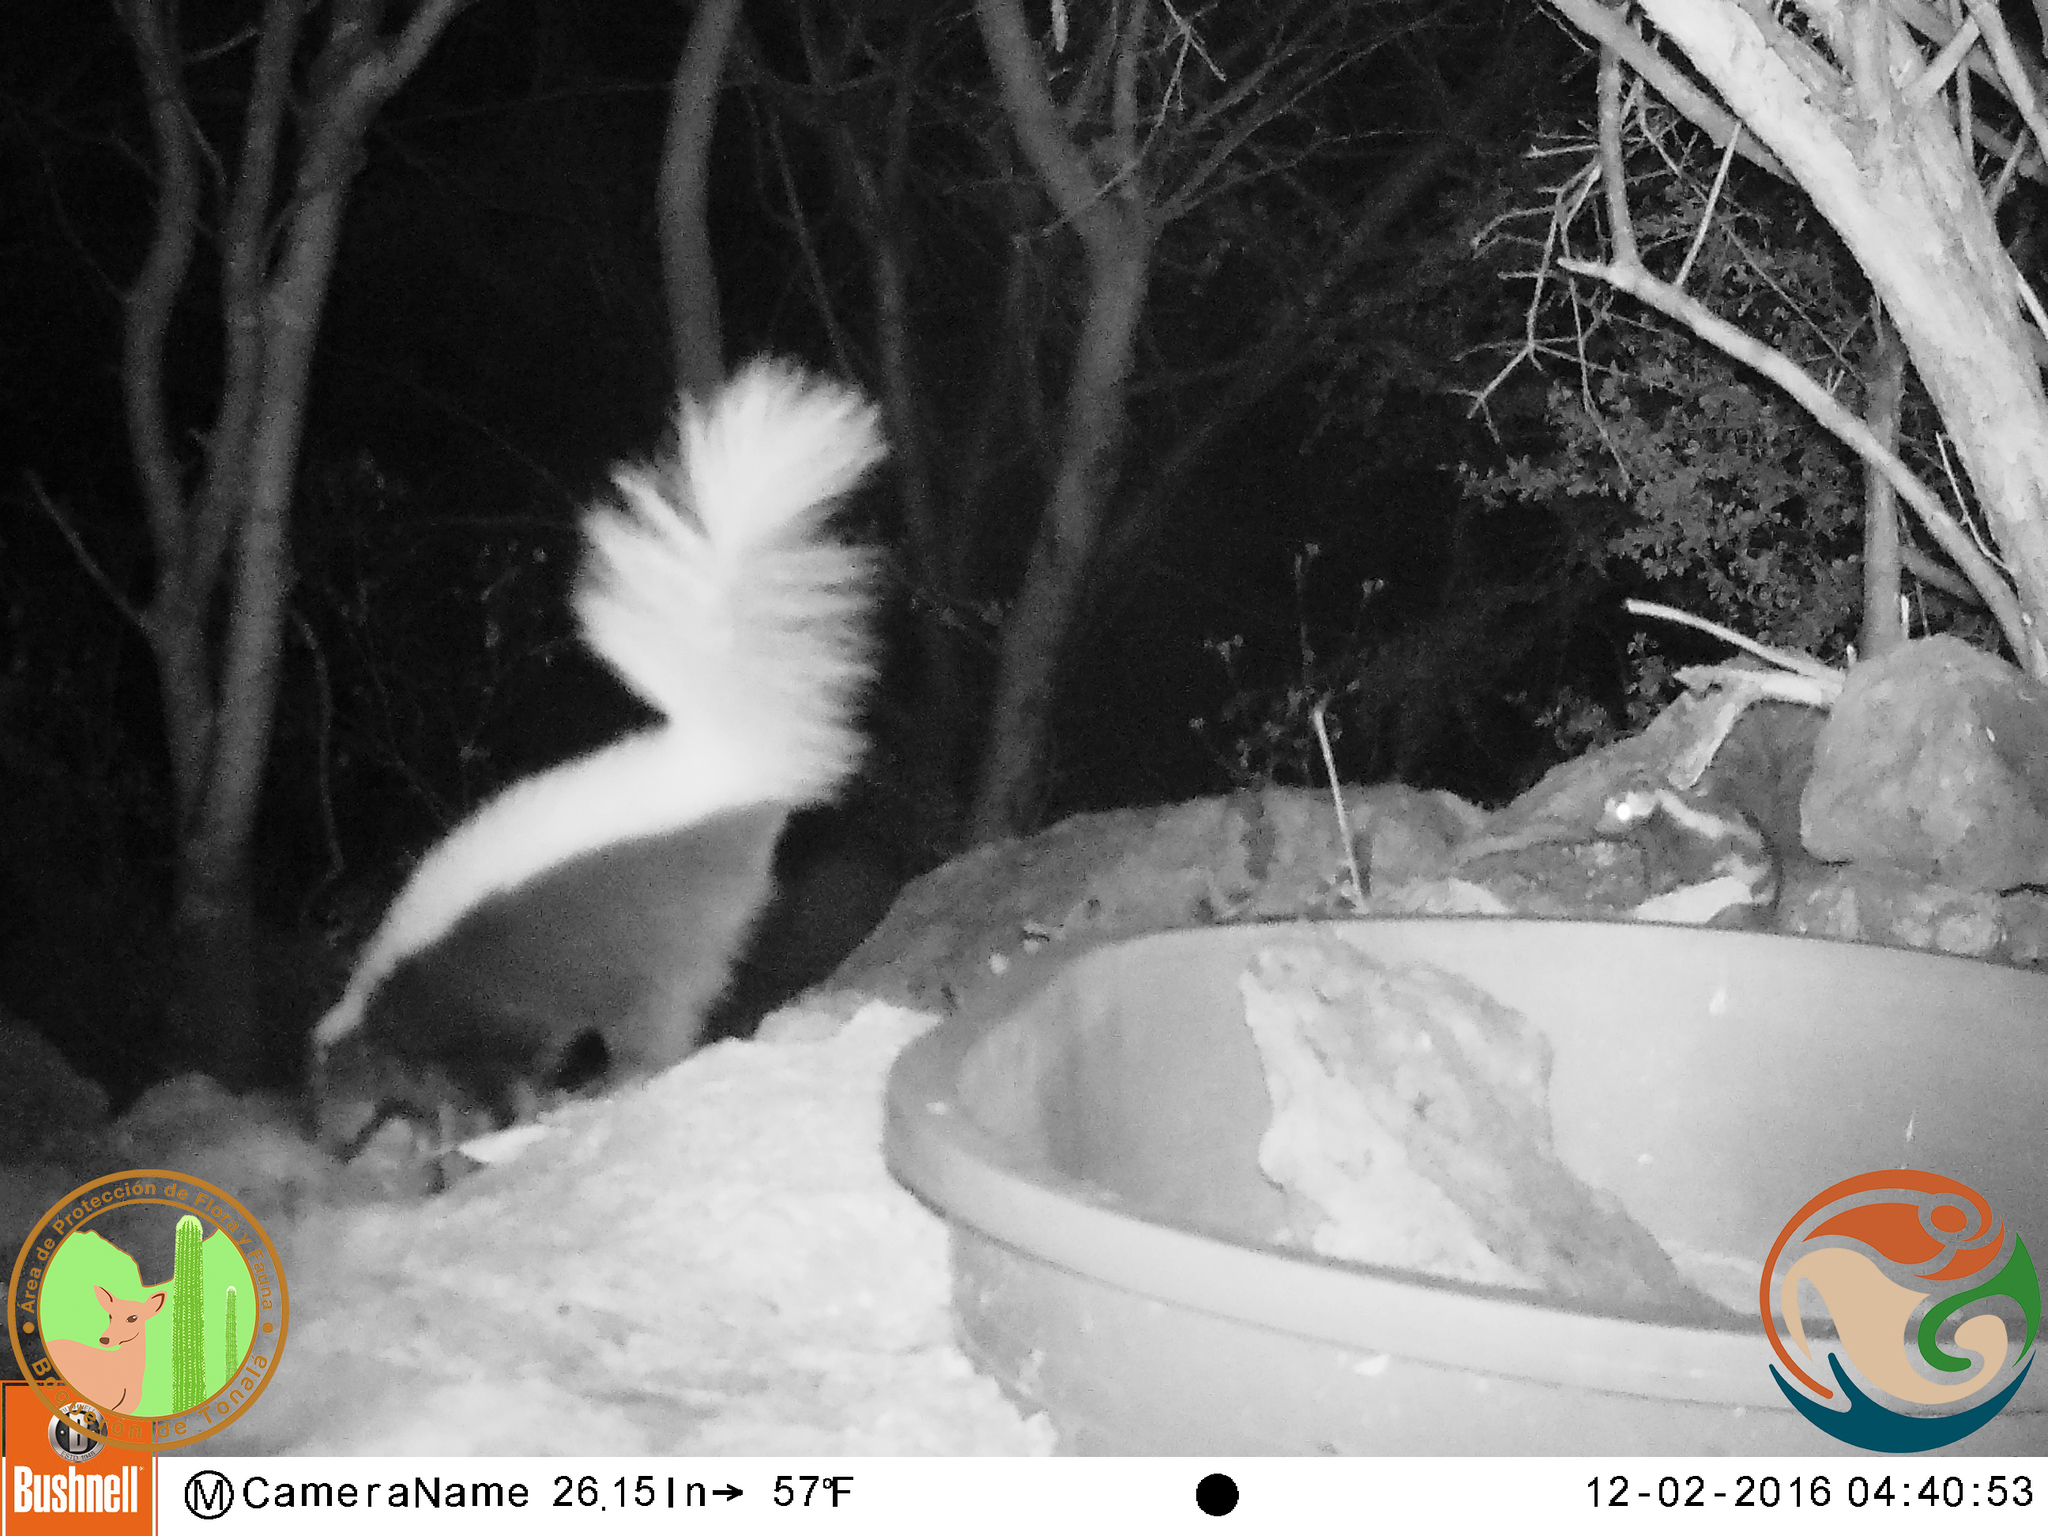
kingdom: Animalia
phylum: Chordata
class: Mammalia
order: Carnivora
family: Mephitidae
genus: Spilogale
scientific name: Spilogale angustifrons
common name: Southern spotted skunk
